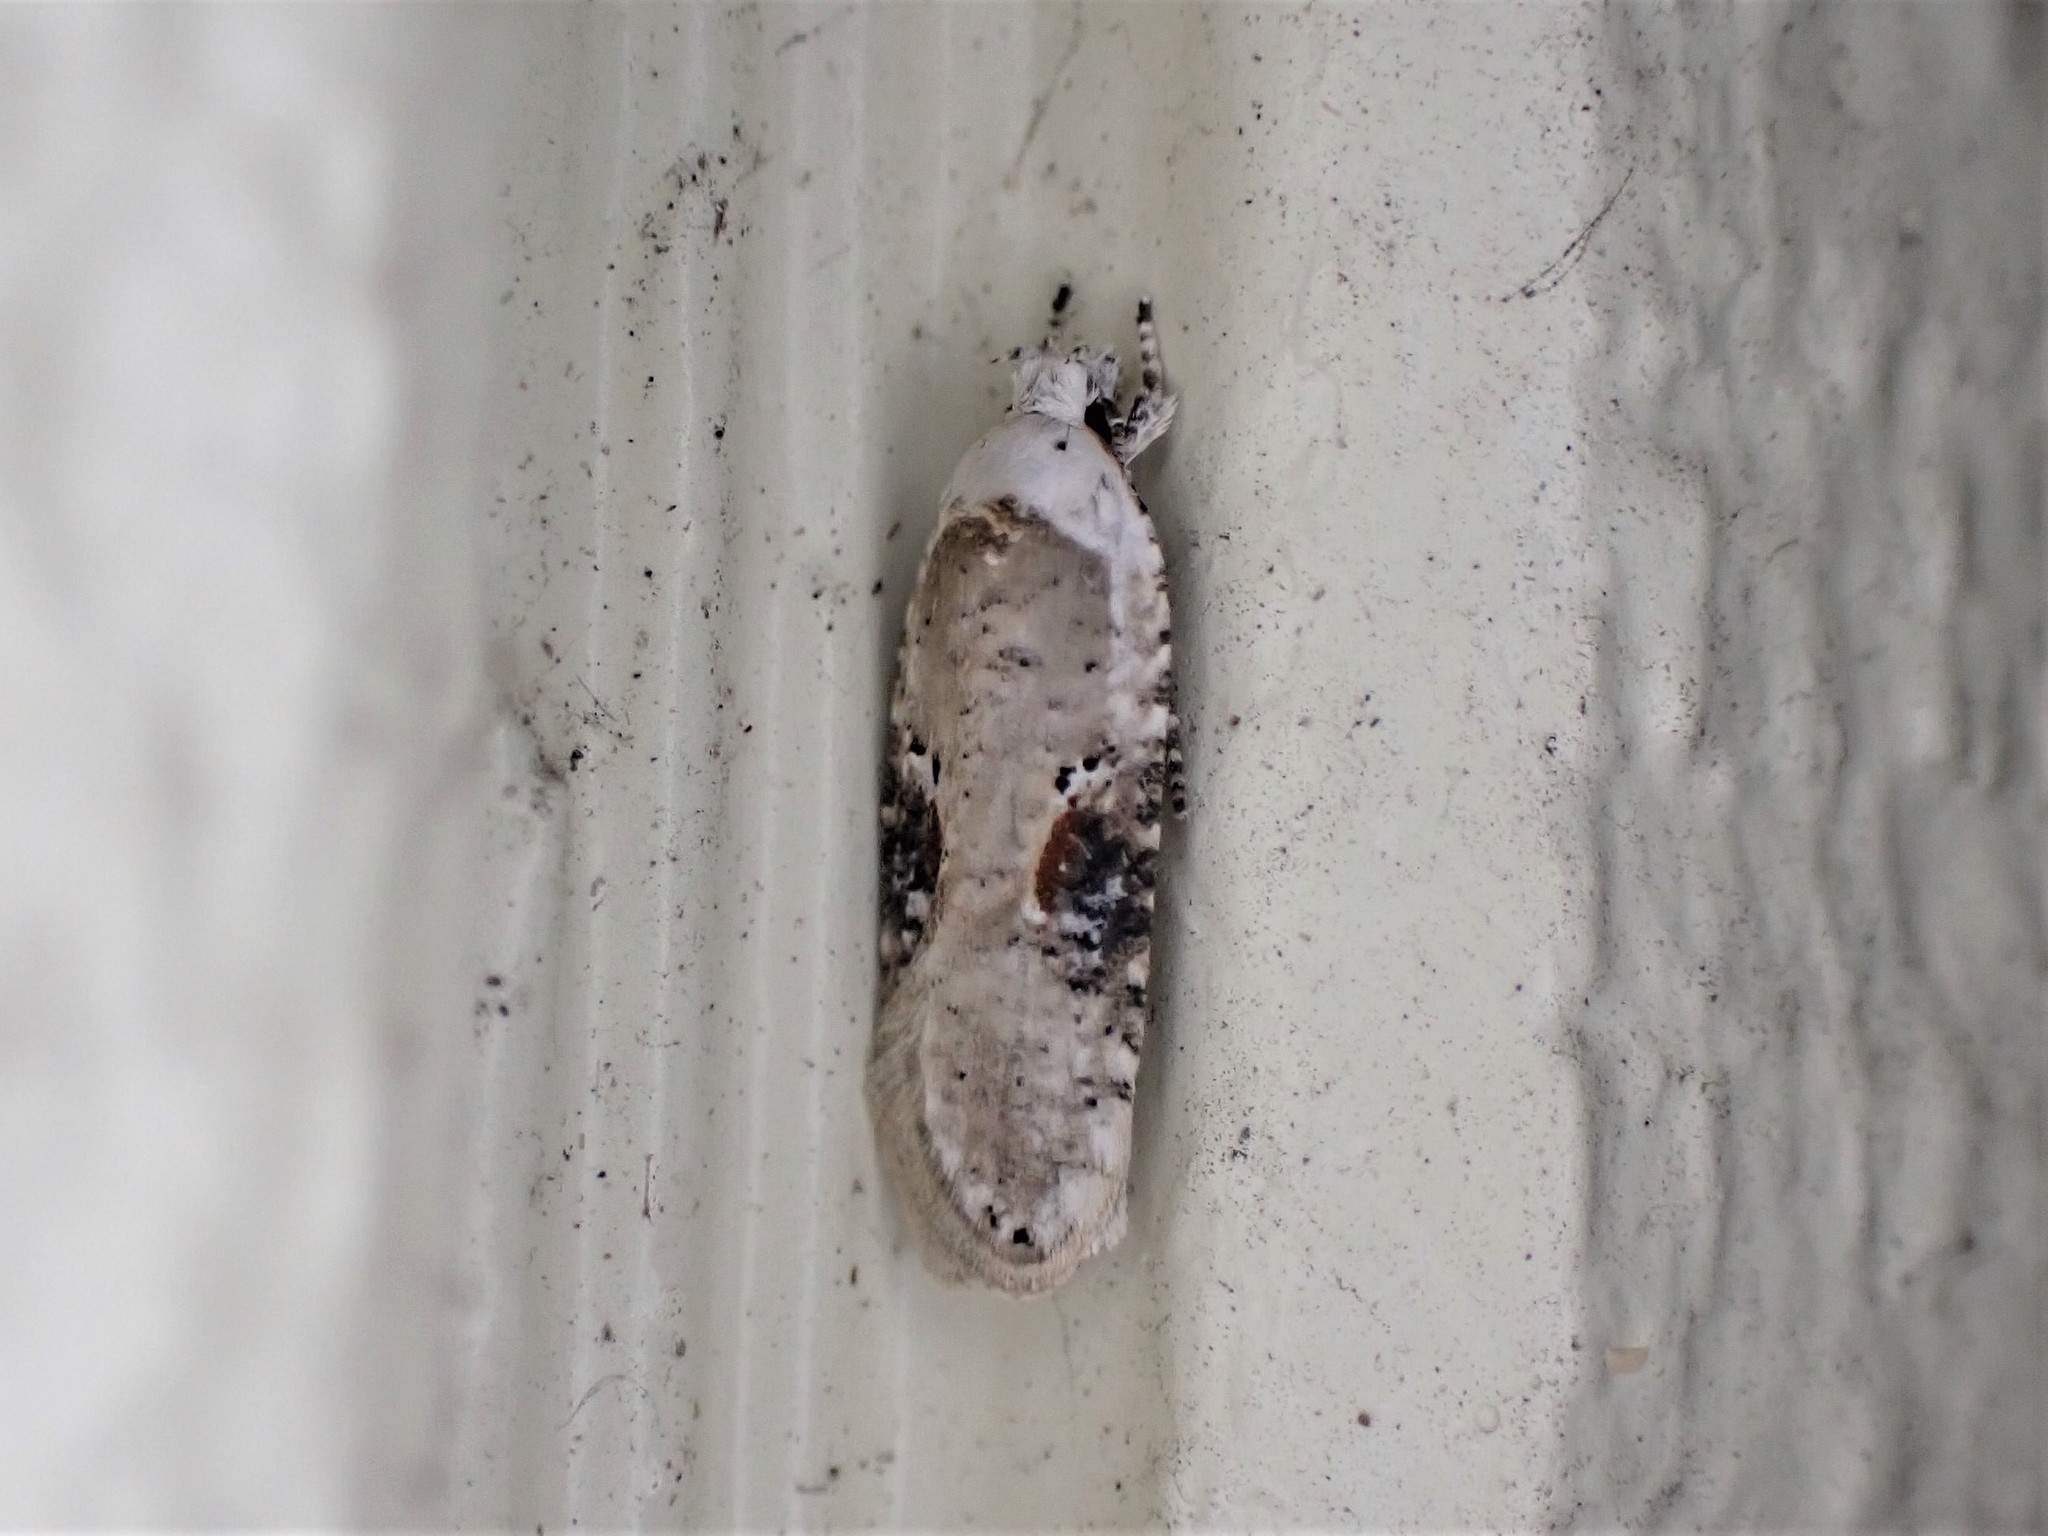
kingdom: Animalia
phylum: Arthropoda
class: Insecta
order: Lepidoptera
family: Depressariidae
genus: Agonopterix
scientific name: Agonopterix alstroemeriana
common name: Moth
